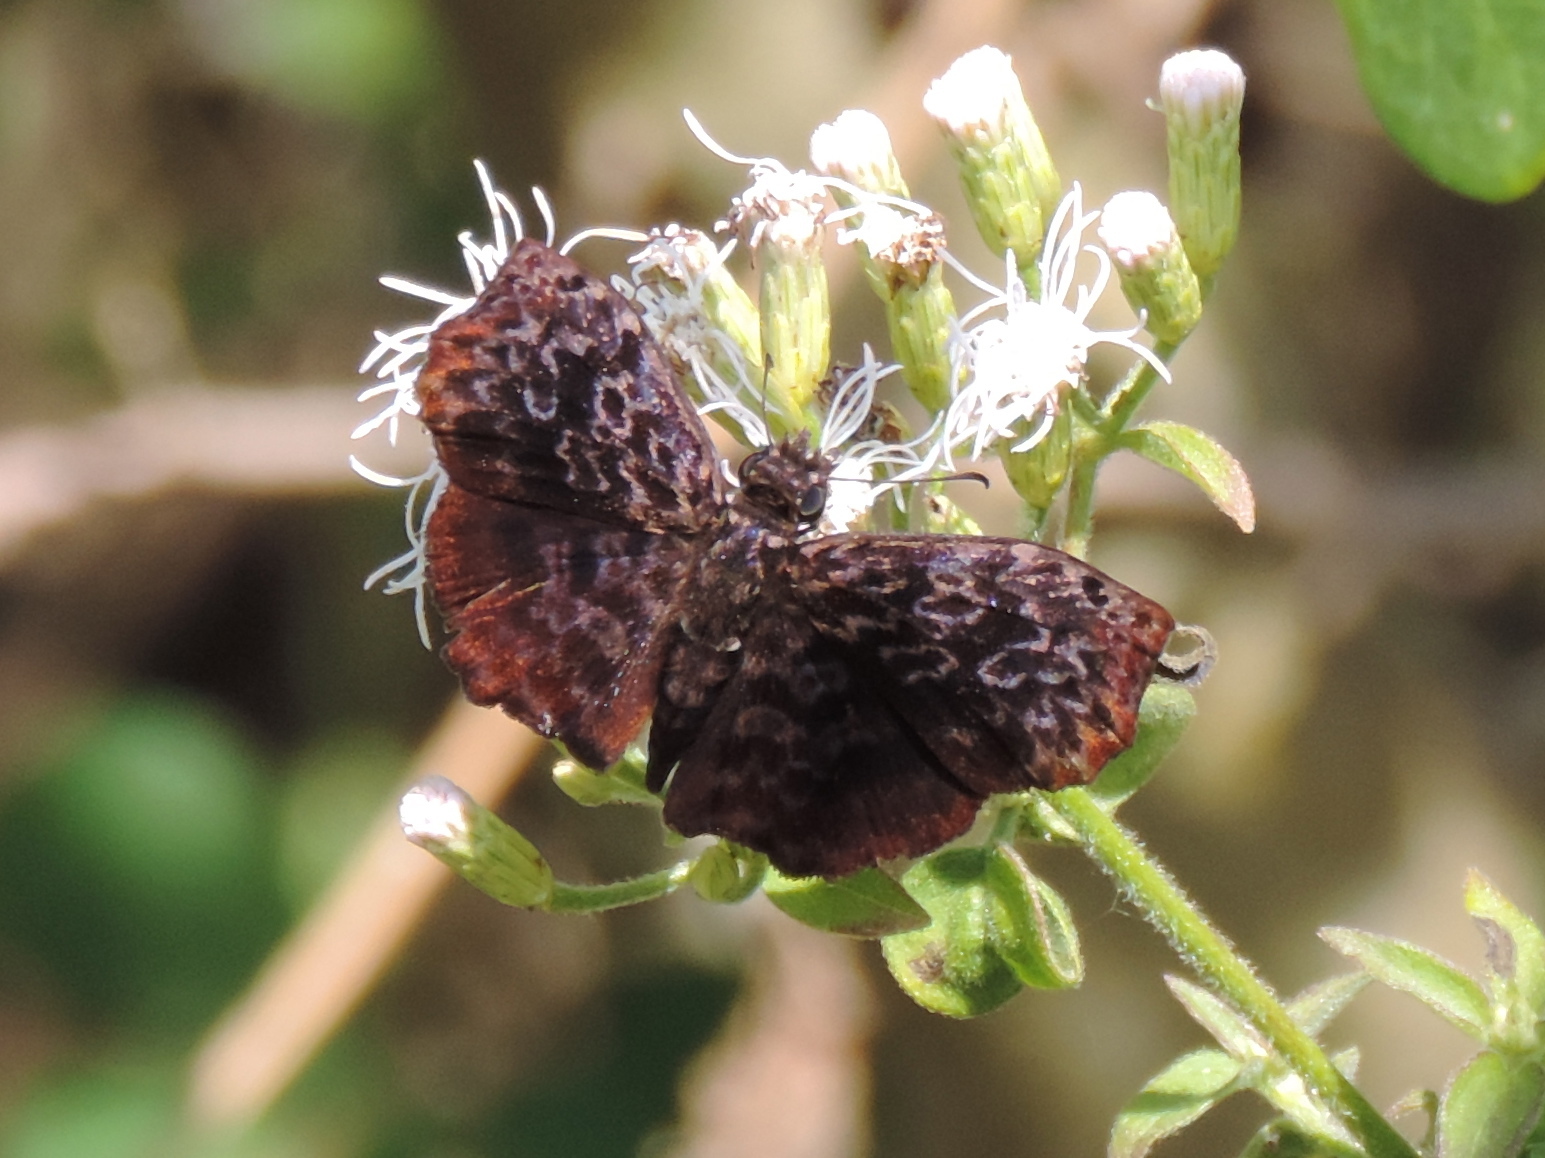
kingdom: Animalia
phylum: Arthropoda
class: Insecta
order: Lepidoptera
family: Hesperiidae
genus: Cycloglypha
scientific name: Cycloglypha thrasibulus
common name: Widespread bent-skipper
